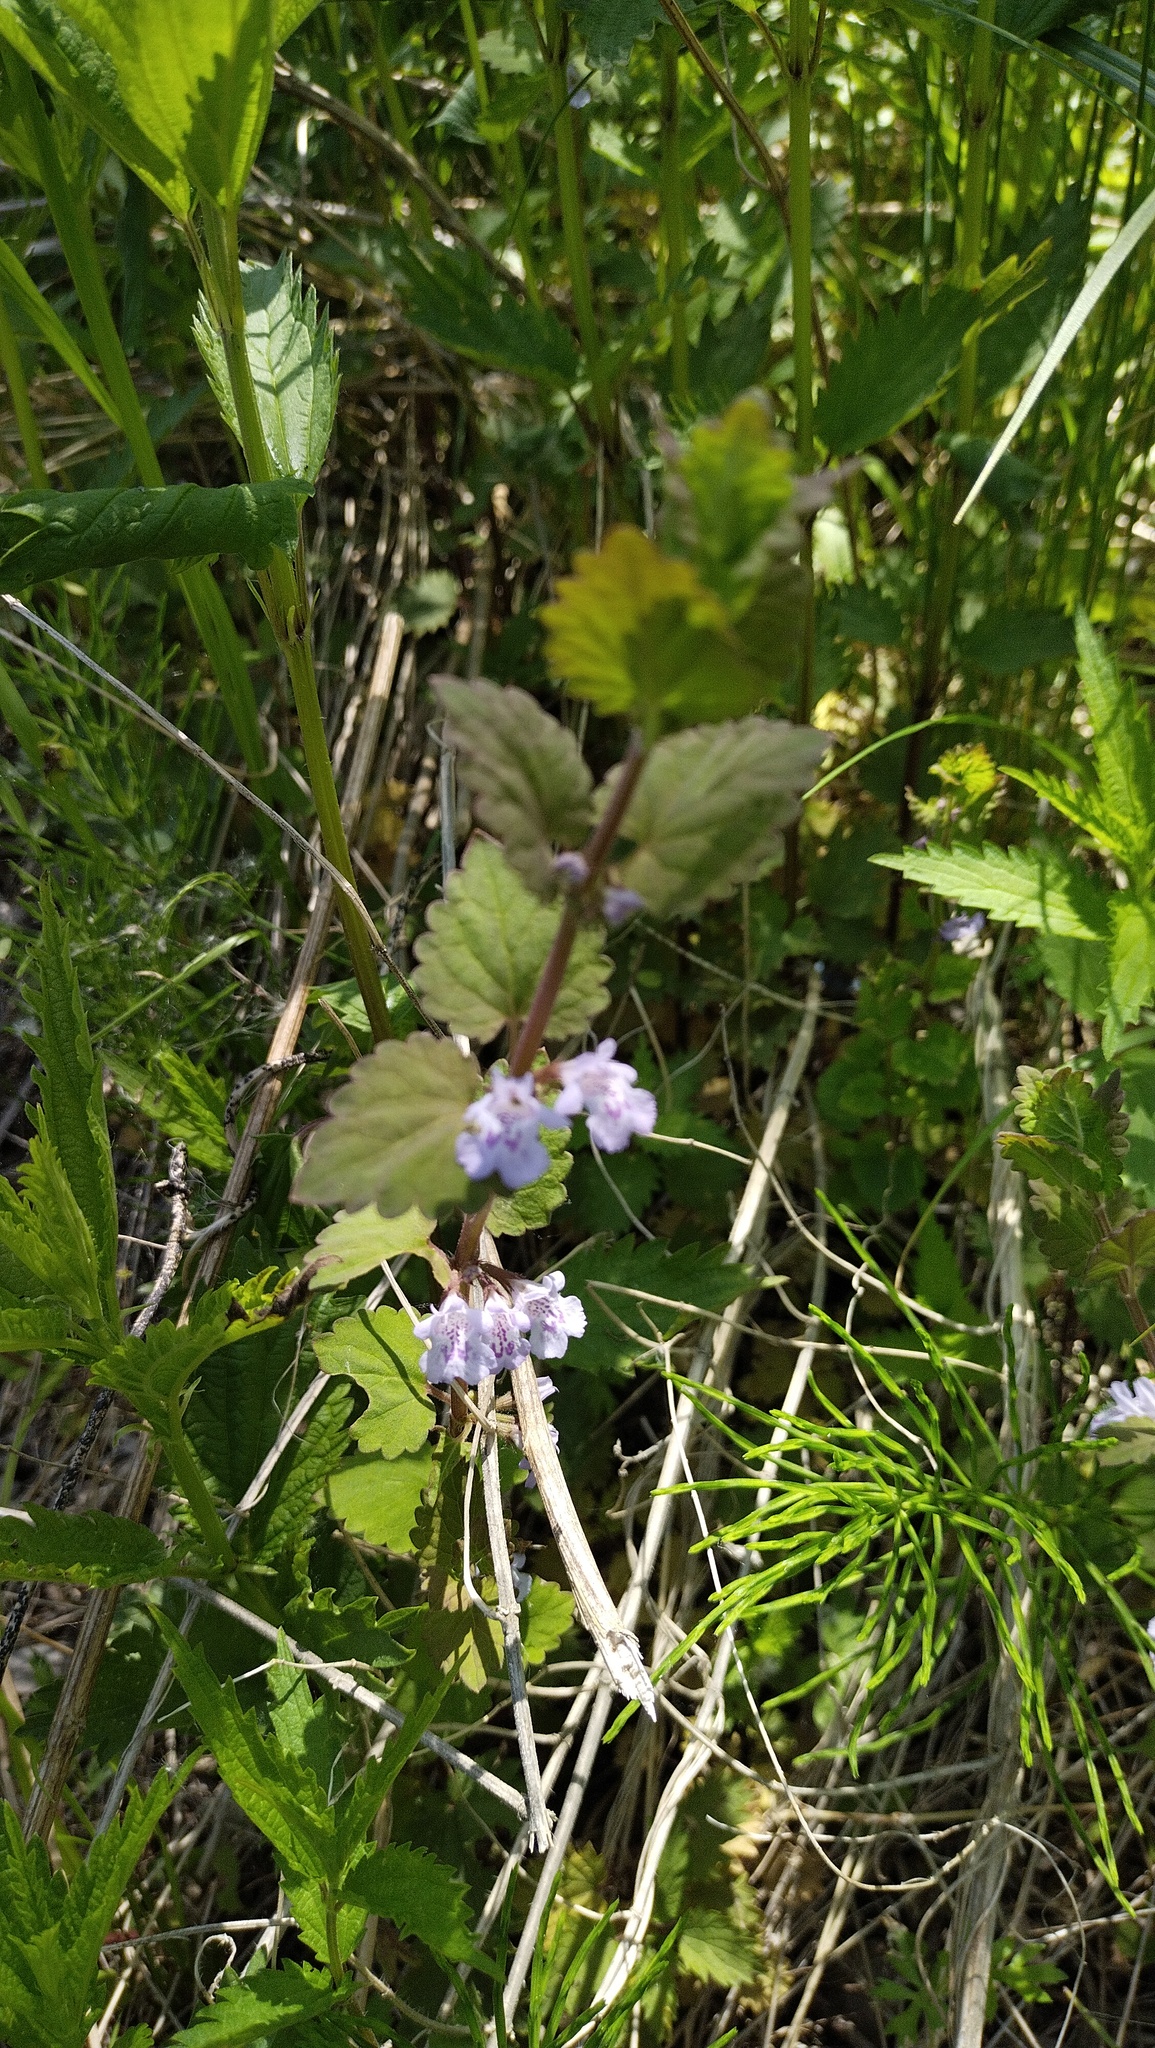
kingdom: Plantae
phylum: Tracheophyta
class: Magnoliopsida
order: Lamiales
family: Lamiaceae
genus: Glechoma
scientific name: Glechoma hederacea
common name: Ground ivy
